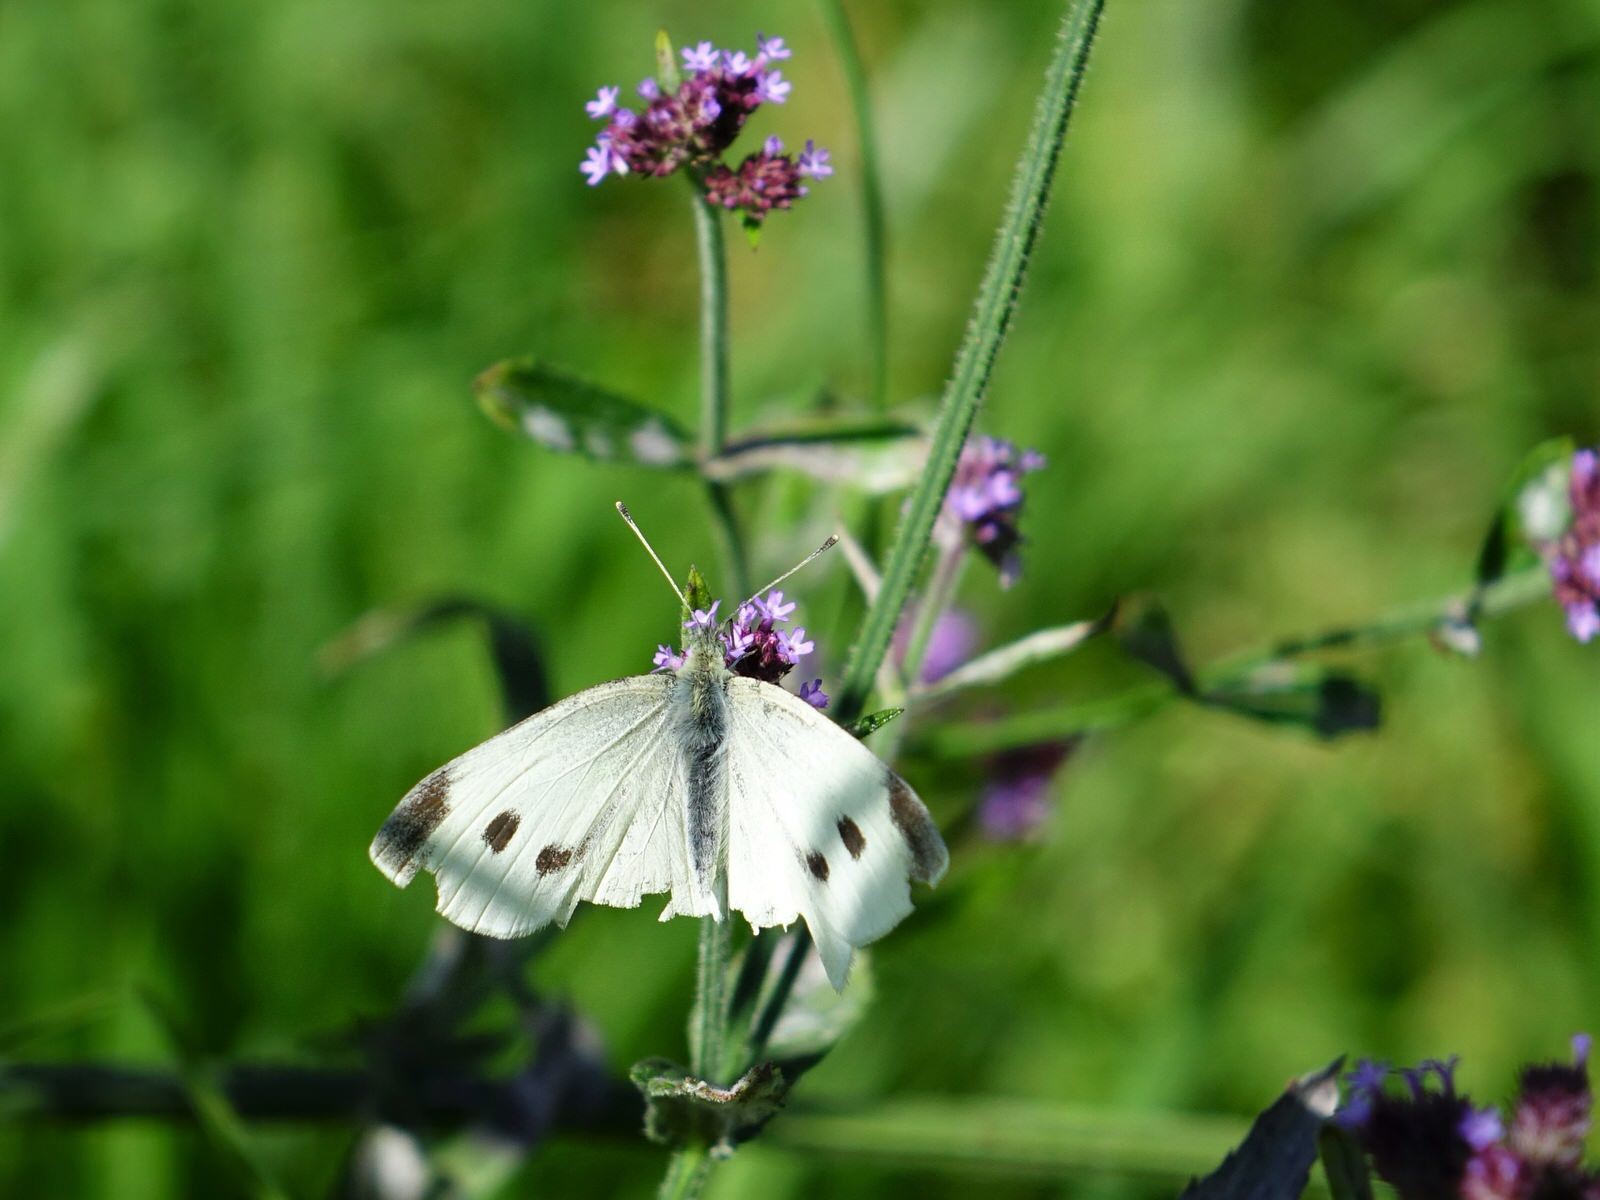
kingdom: Animalia
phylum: Arthropoda
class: Insecta
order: Lepidoptera
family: Pieridae
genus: Pieris
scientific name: Pieris rapae
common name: Small white
